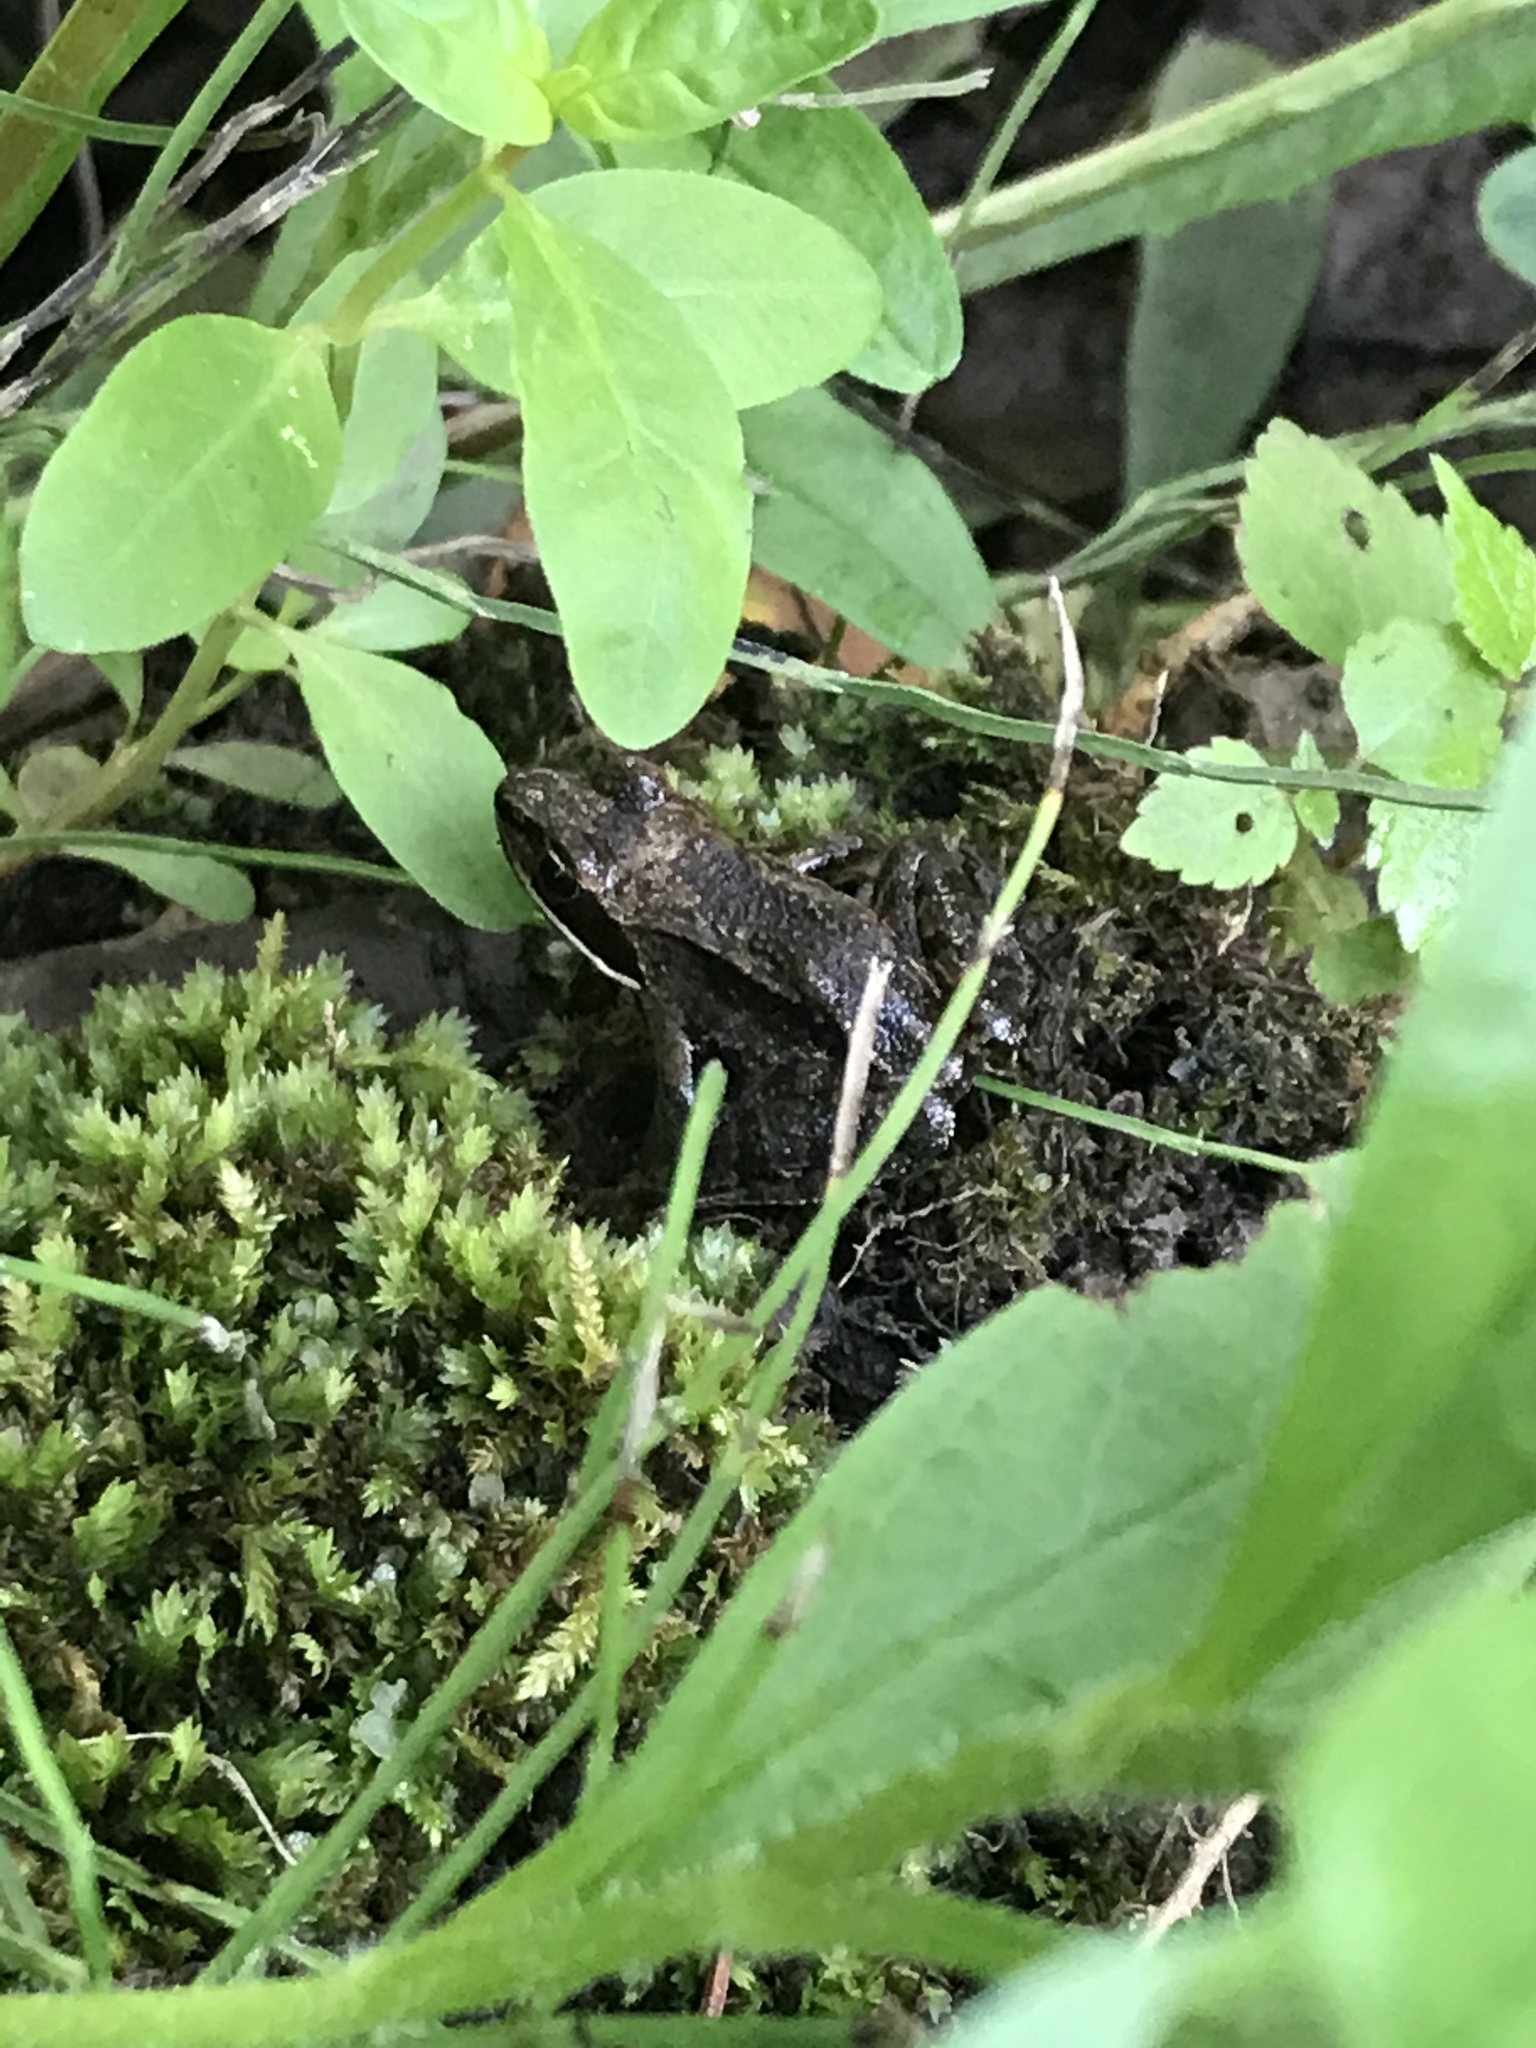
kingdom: Animalia
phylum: Chordata
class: Amphibia
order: Anura
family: Ranidae
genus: Lithobates
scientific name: Lithobates sylvaticus
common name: Wood frog
